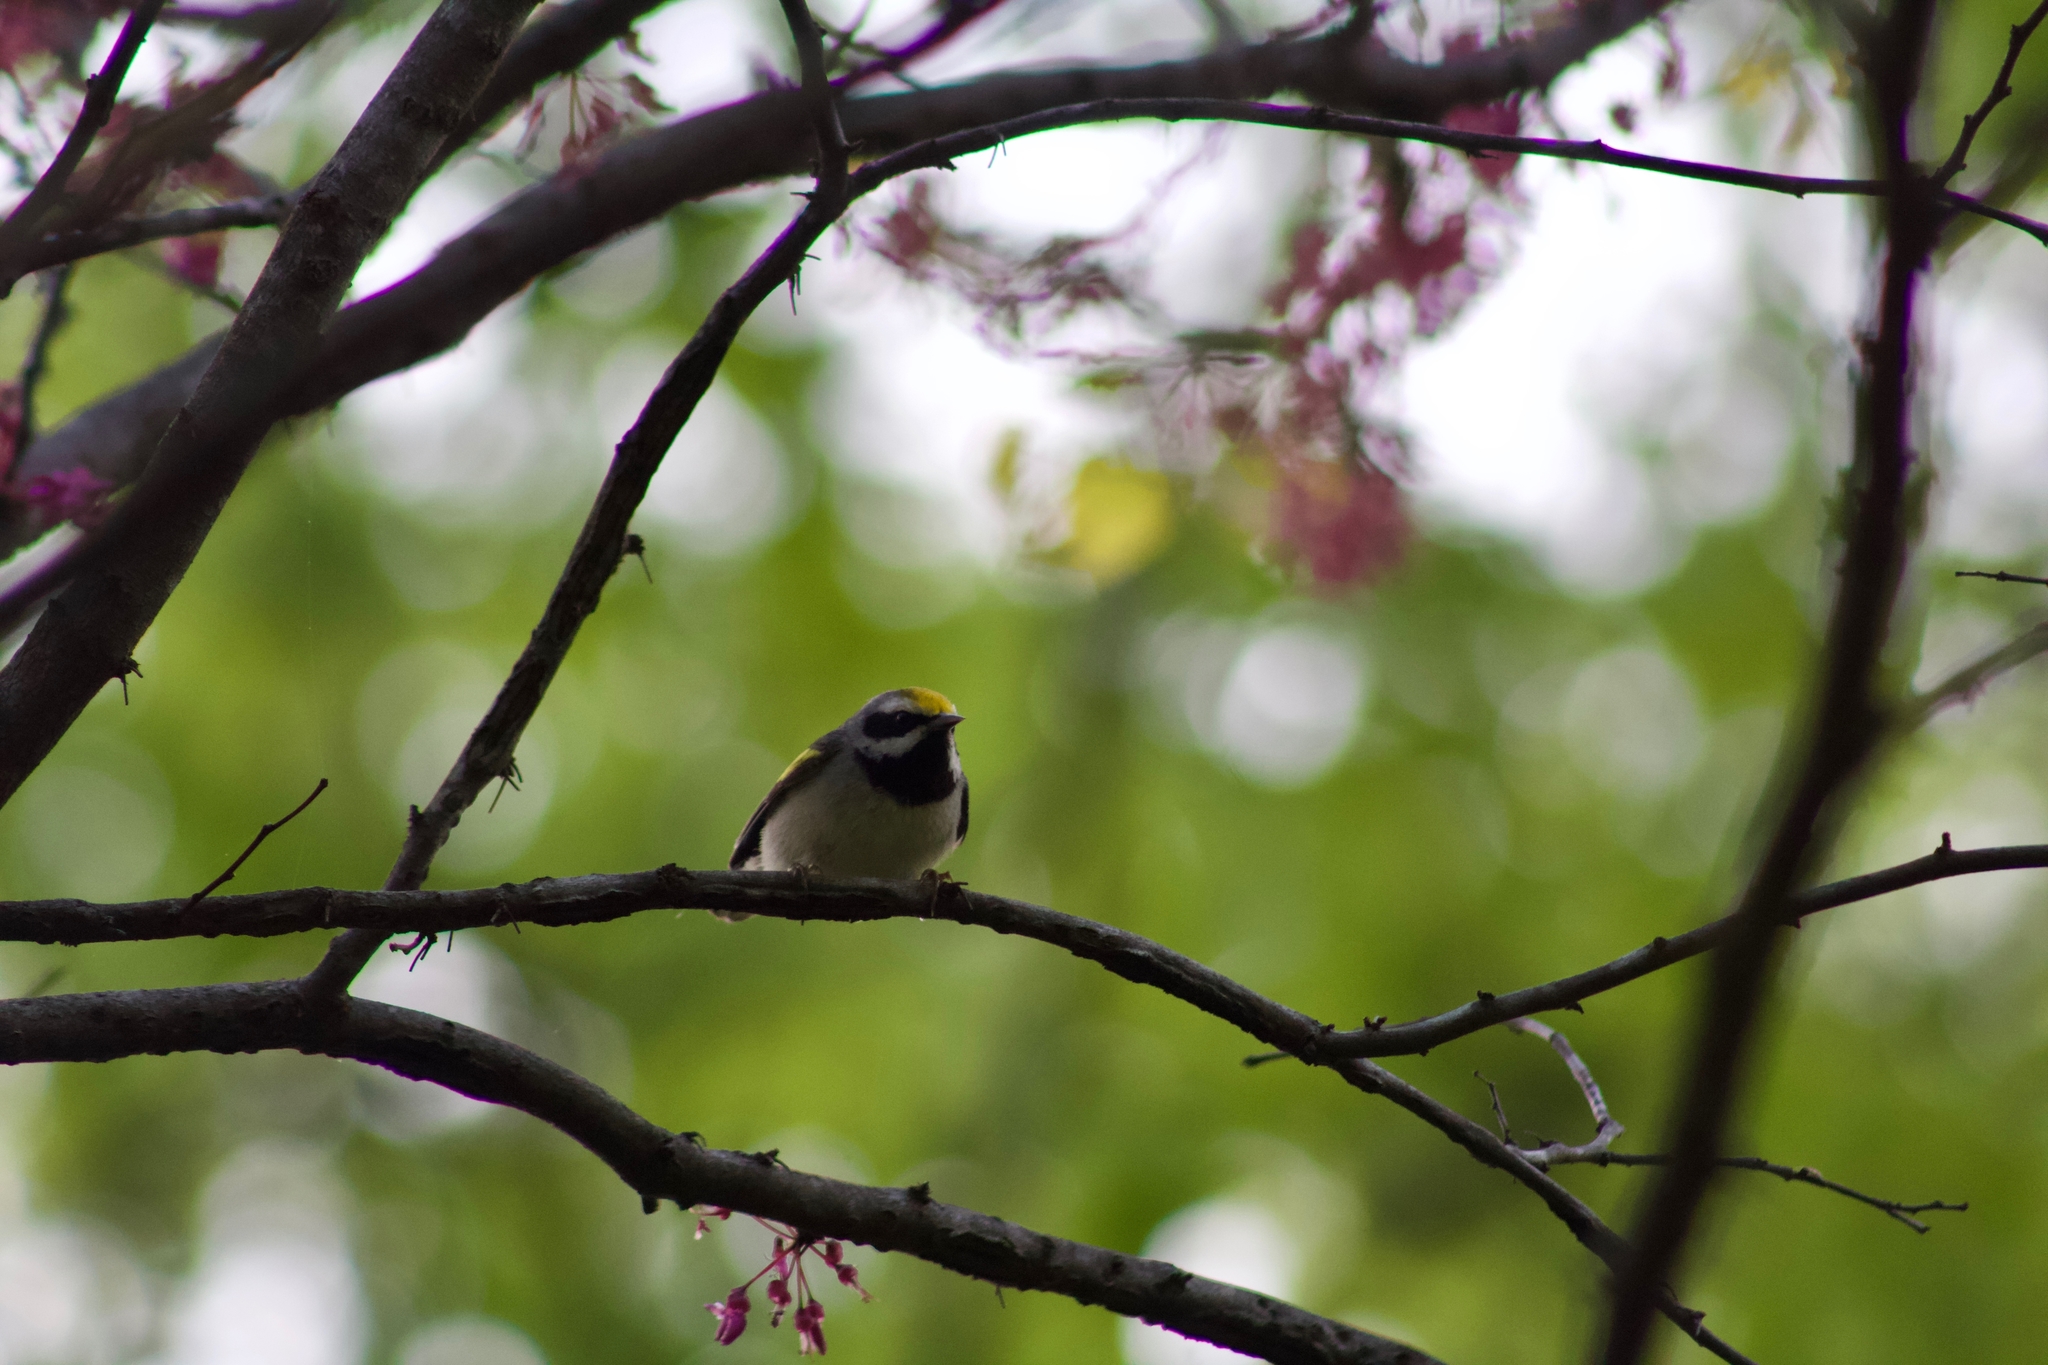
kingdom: Animalia
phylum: Chordata
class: Aves
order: Passeriformes
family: Parulidae
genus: Vermivora
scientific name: Vermivora chrysoptera
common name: Golden-winged warbler
